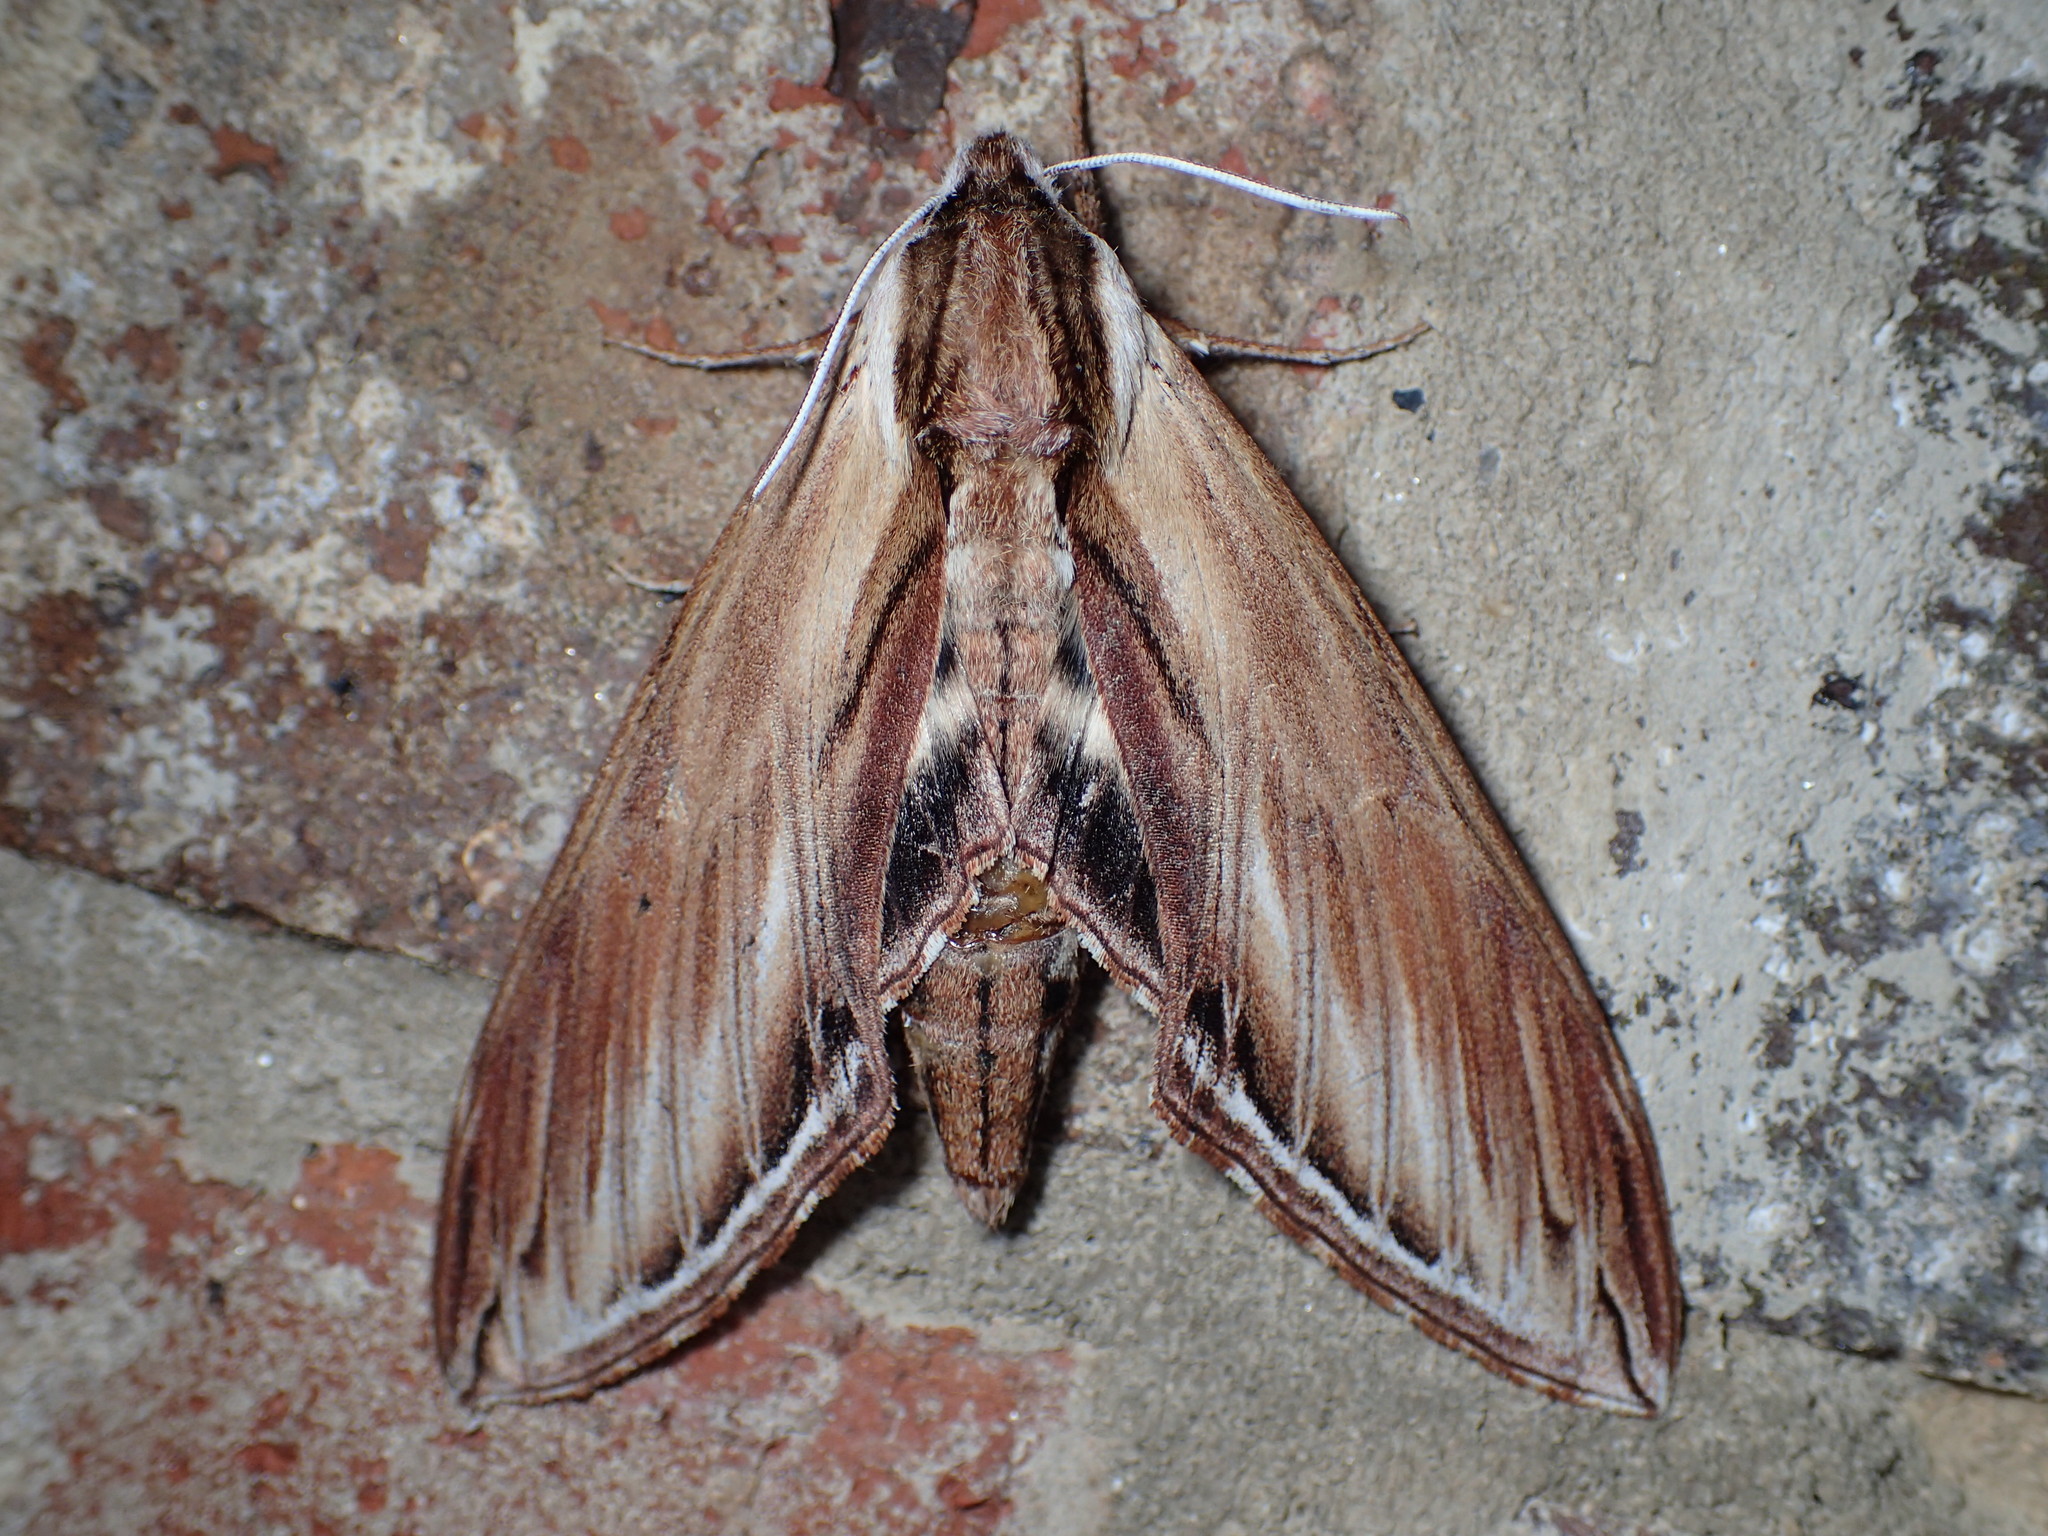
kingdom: Animalia
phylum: Arthropoda
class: Insecta
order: Lepidoptera
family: Sphingidae
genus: Sphinx
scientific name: Sphinx kalmiae
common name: Laurel sphinx
